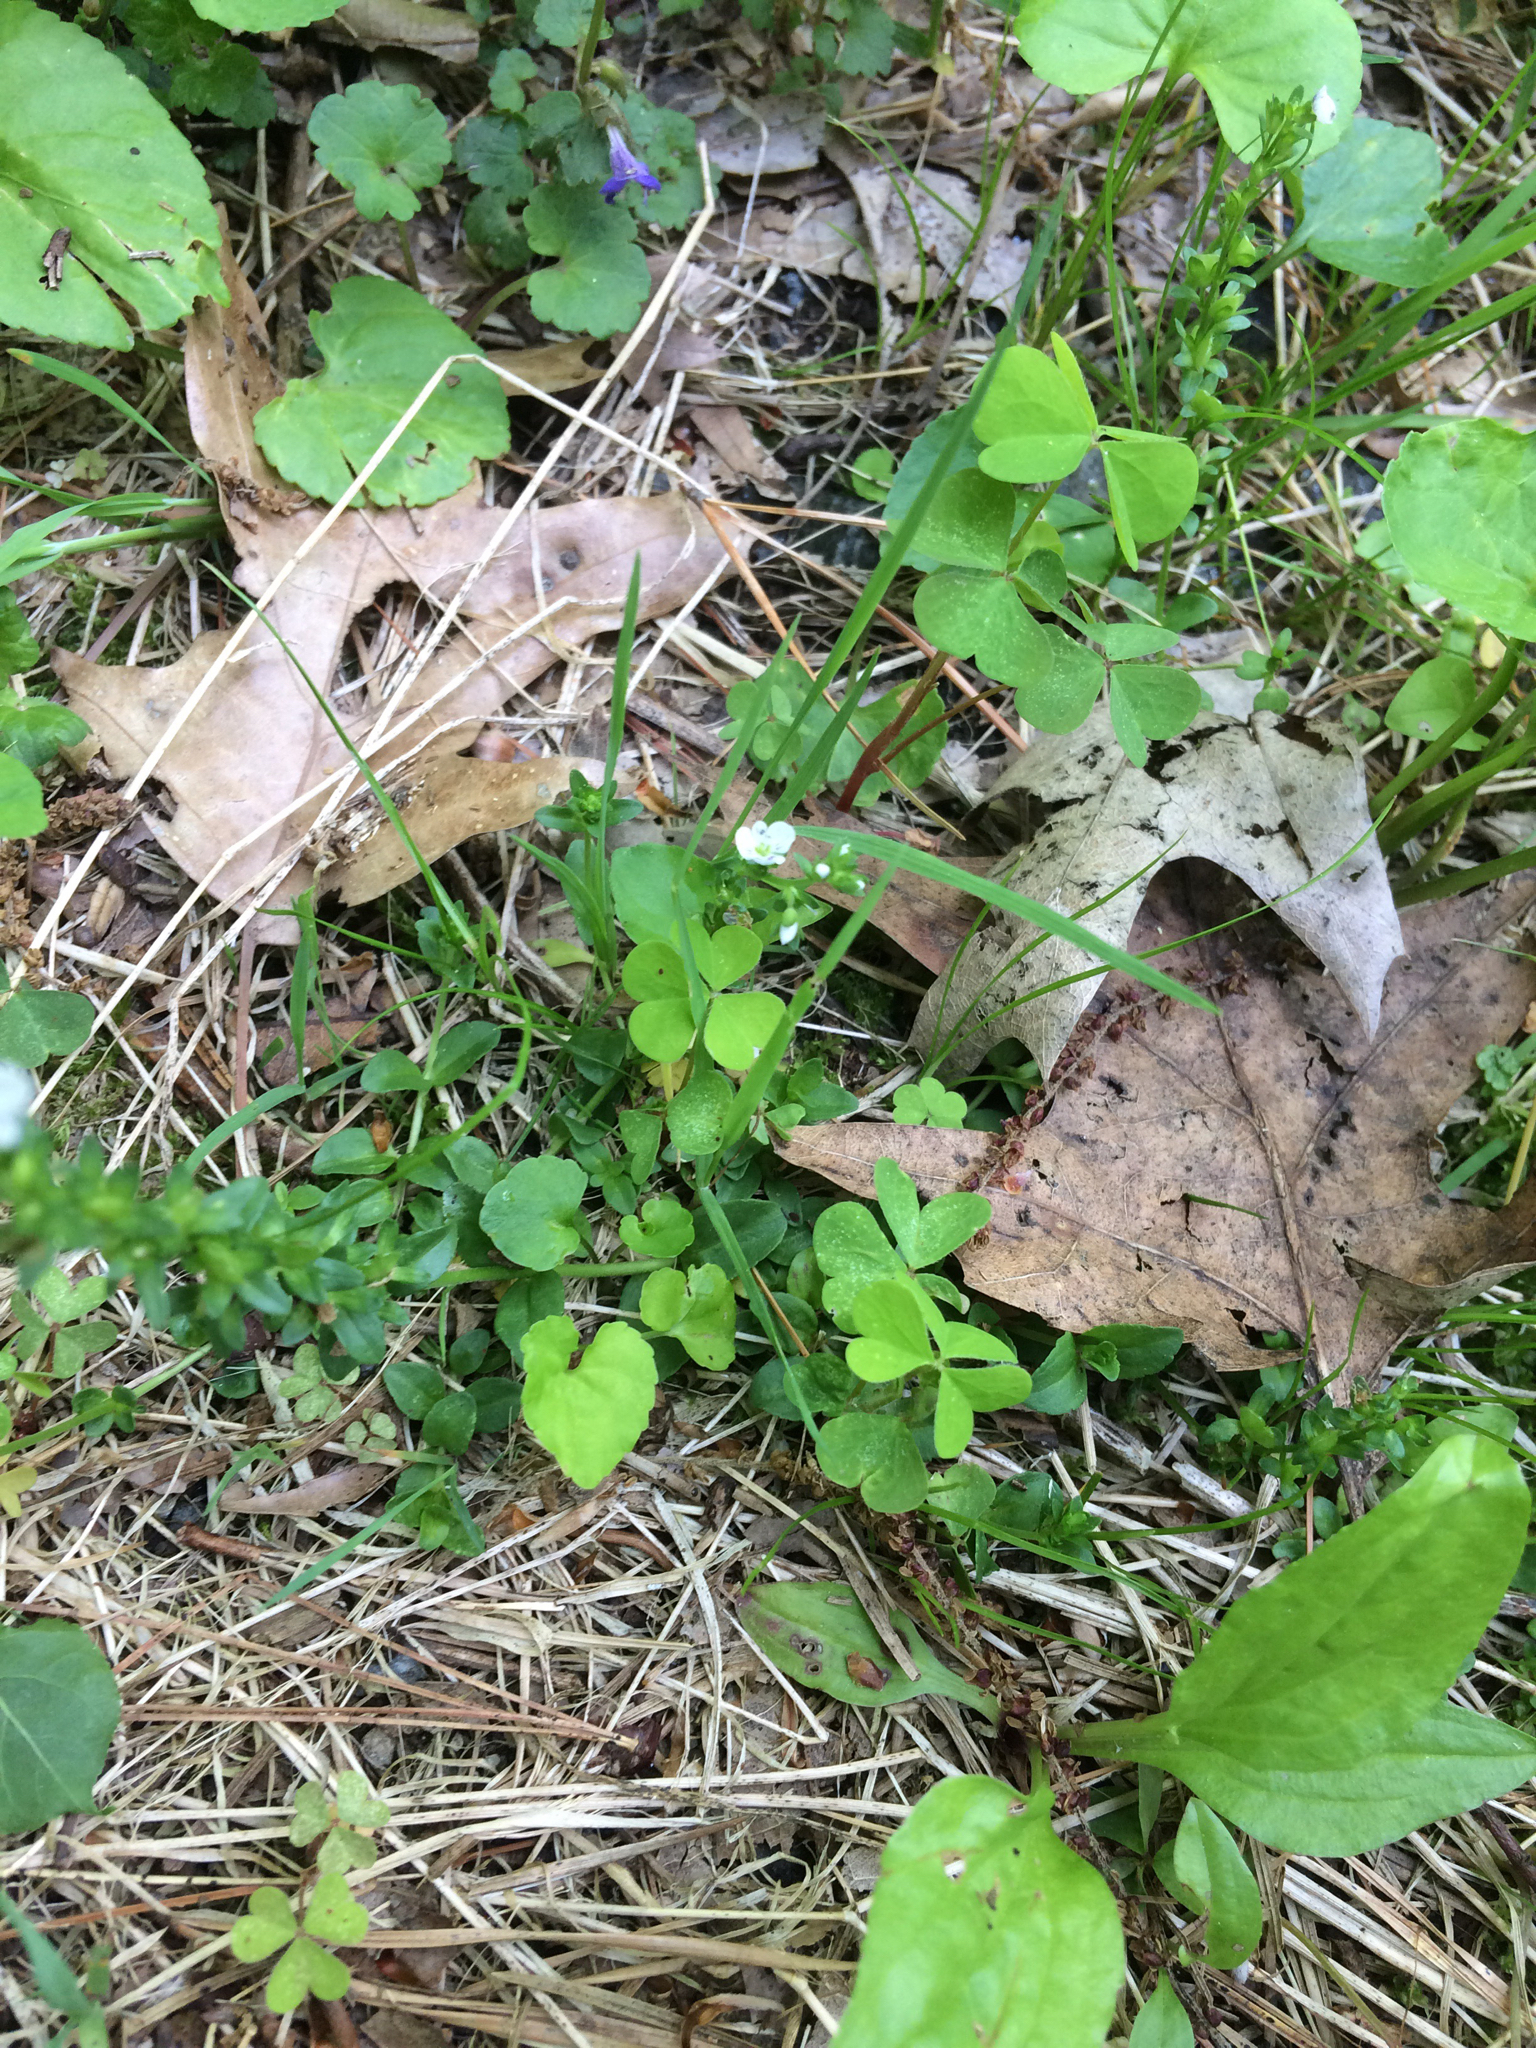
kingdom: Plantae
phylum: Tracheophyta
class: Magnoliopsida
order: Lamiales
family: Plantaginaceae
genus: Veronica
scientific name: Veronica serpyllifolia
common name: Thyme-leaved speedwell
